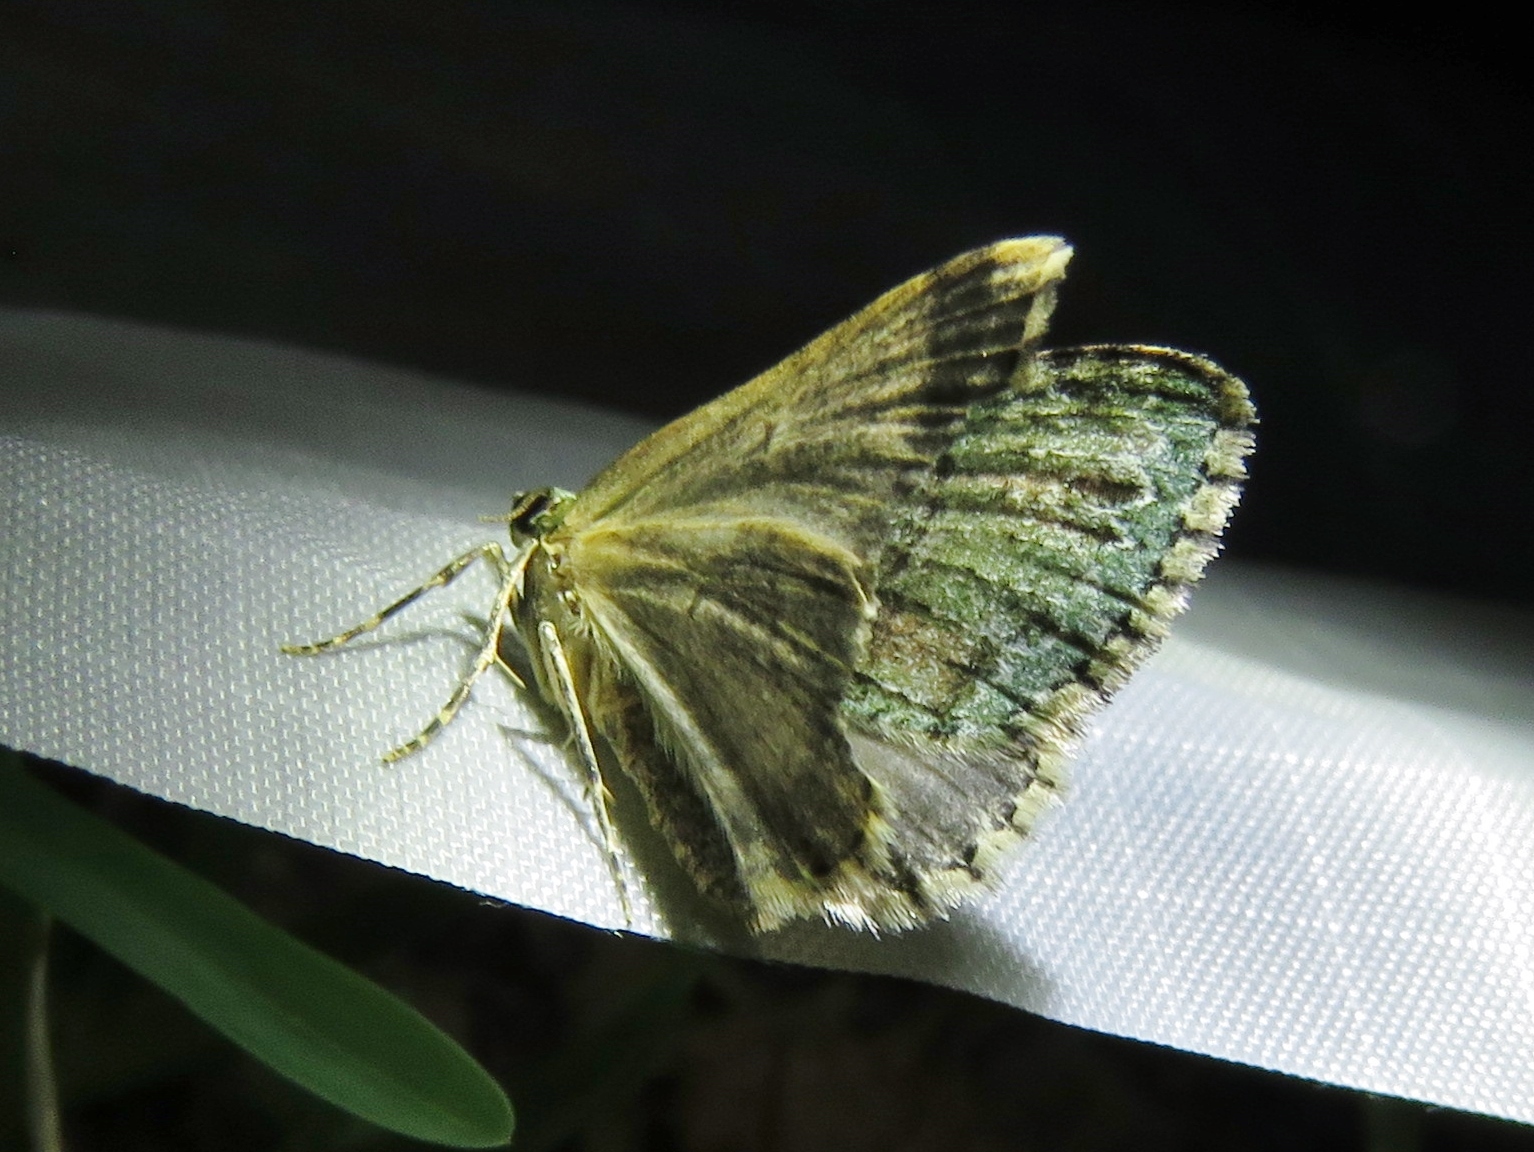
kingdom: Animalia
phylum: Arthropoda
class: Insecta
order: Lepidoptera
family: Geometridae
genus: Hammaptera
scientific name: Hammaptera parinotata
